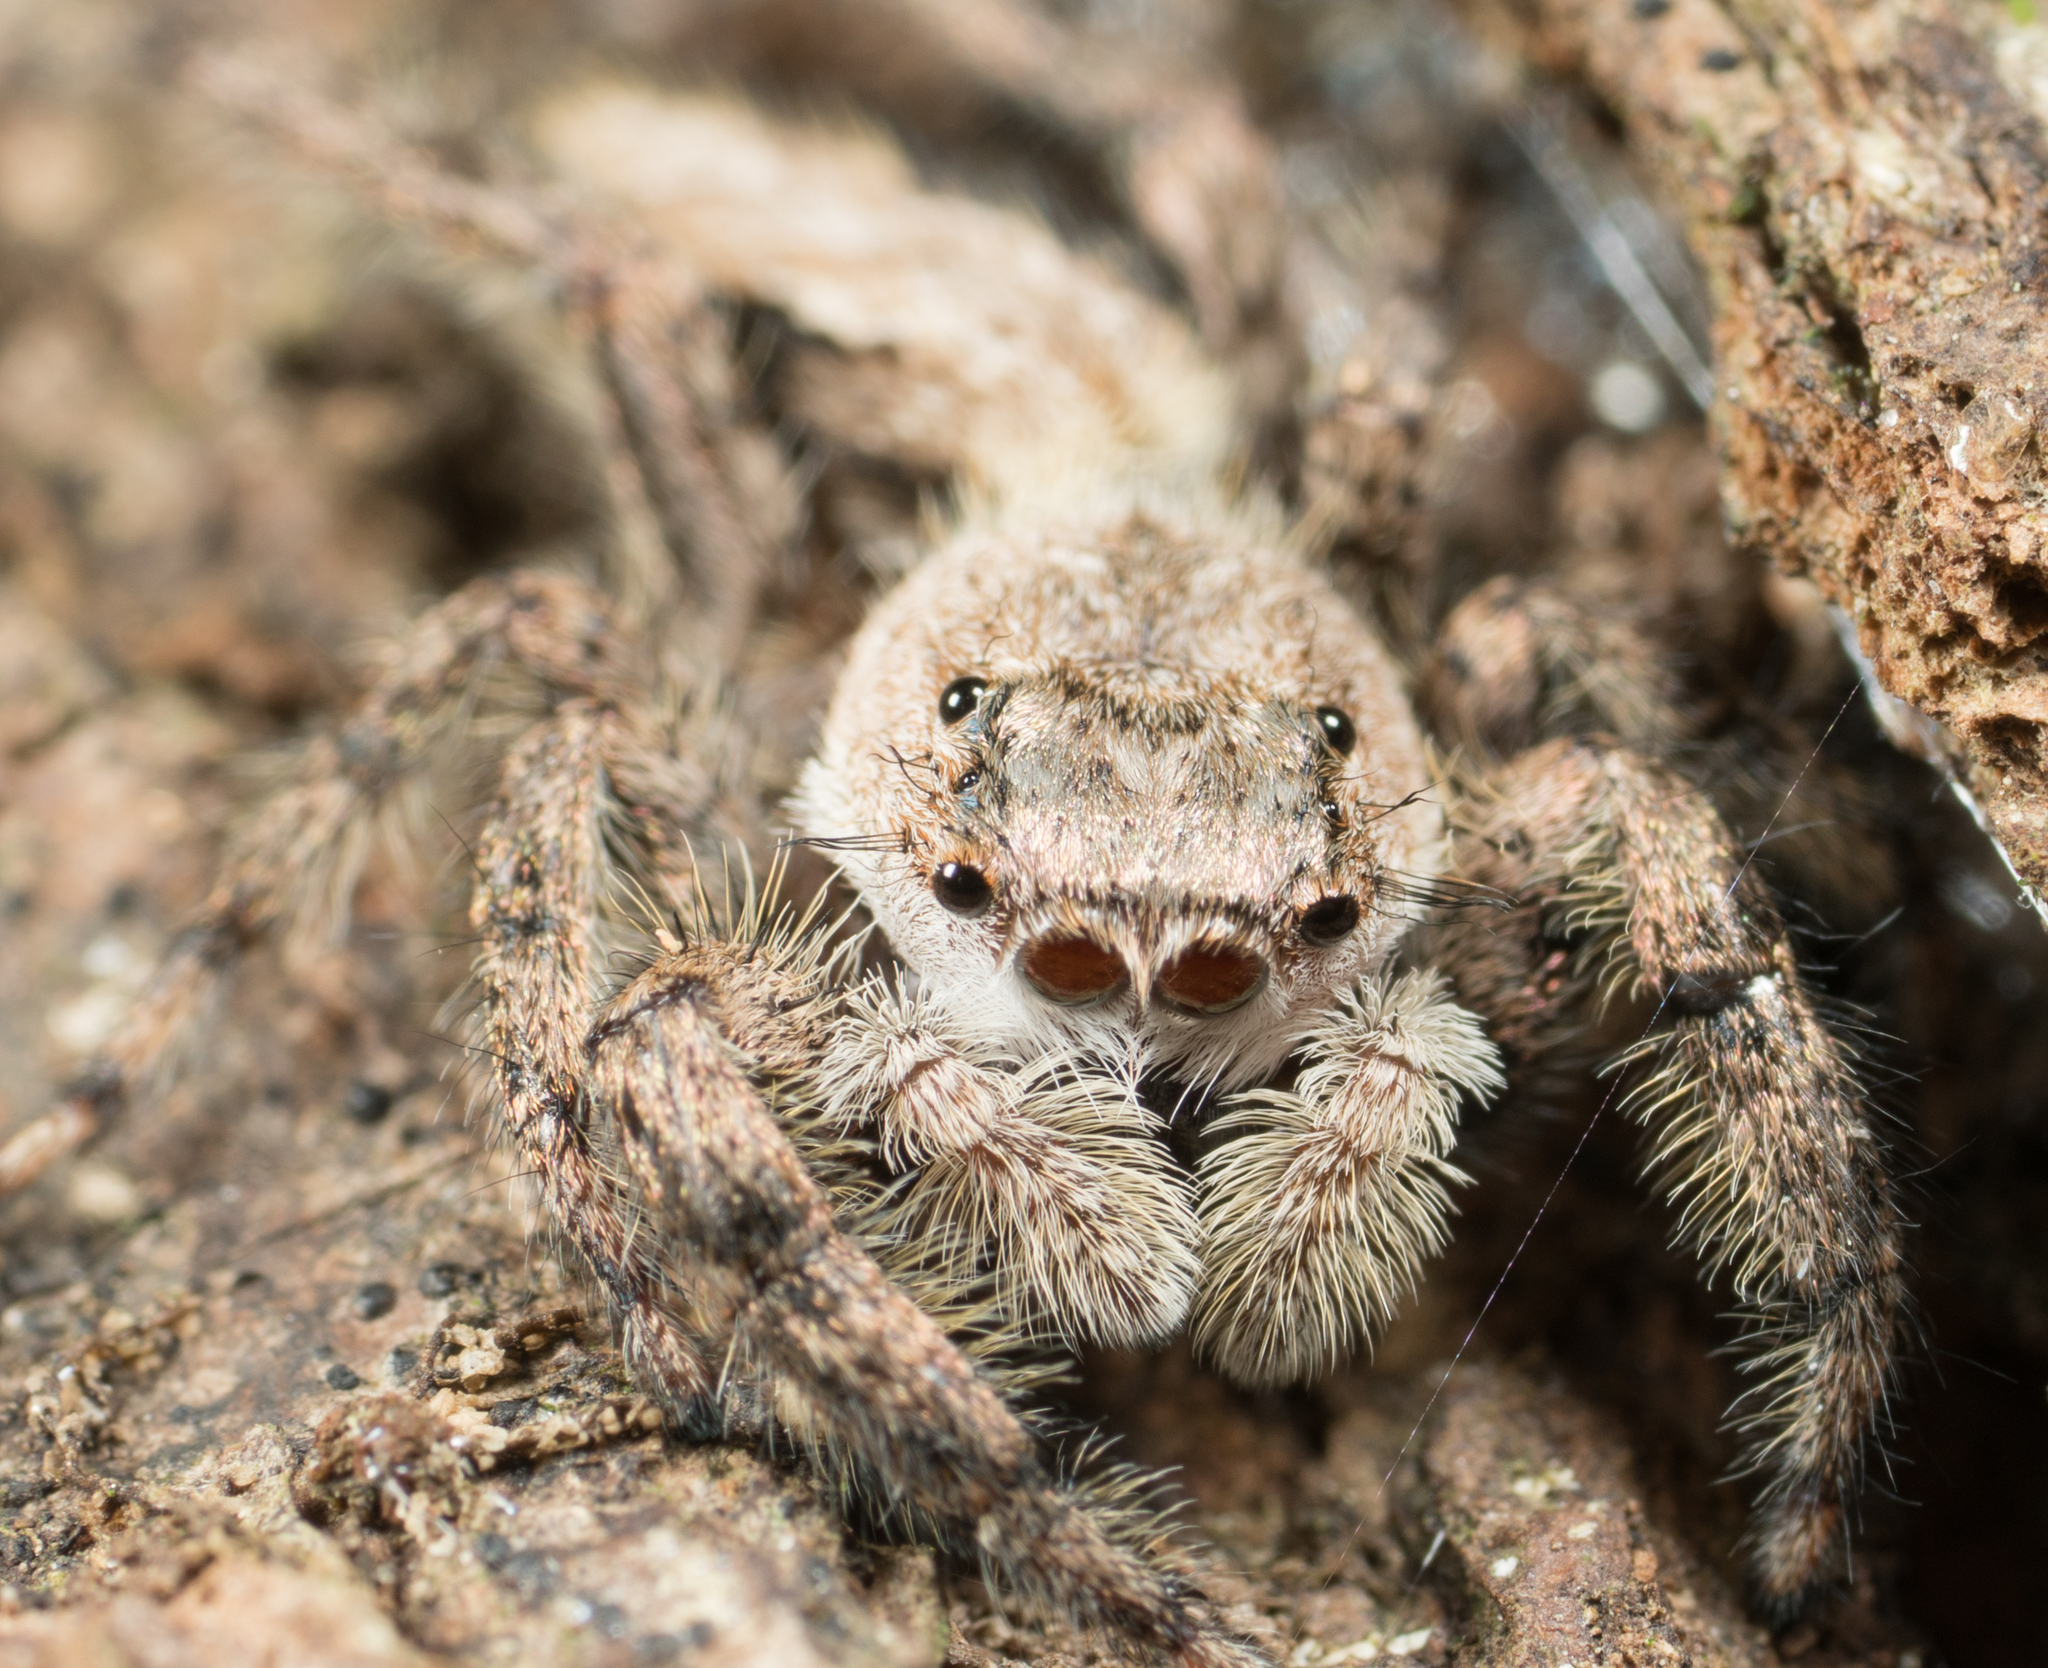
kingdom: Animalia
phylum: Arthropoda
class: Arachnida
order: Araneae
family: Salticidae
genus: Platycryptus
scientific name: Platycryptus undatus
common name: Tan jumping spider
